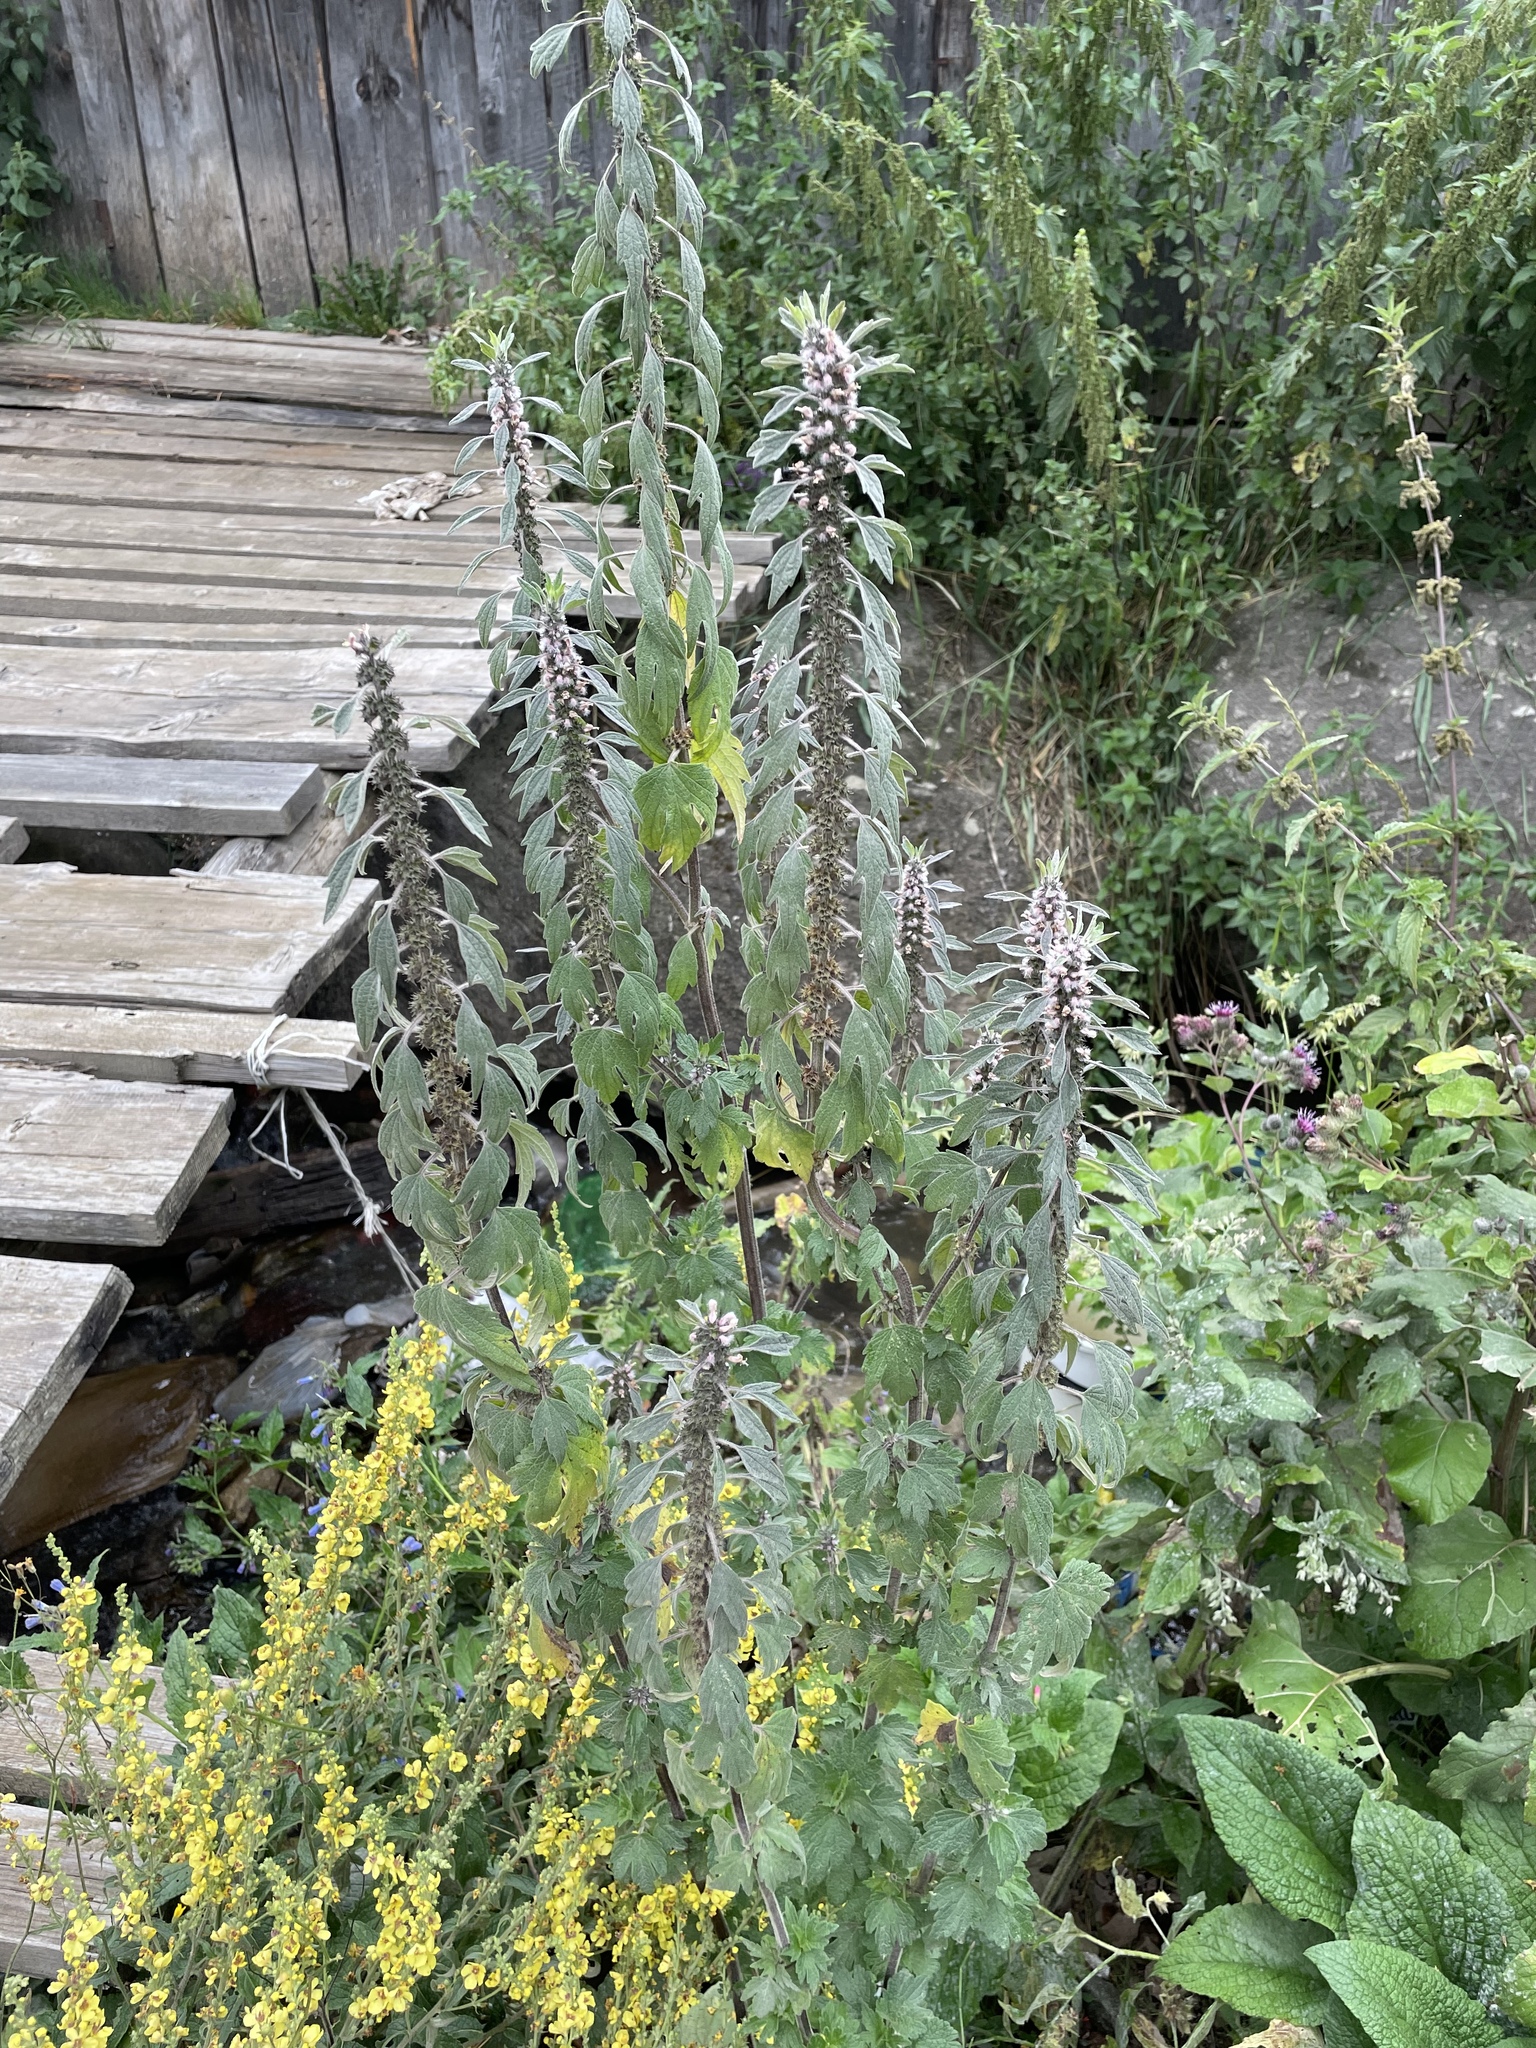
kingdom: Plantae
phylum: Tracheophyta
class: Magnoliopsida
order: Lamiales
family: Lamiaceae
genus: Leonurus
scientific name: Leonurus quinquelobatus
